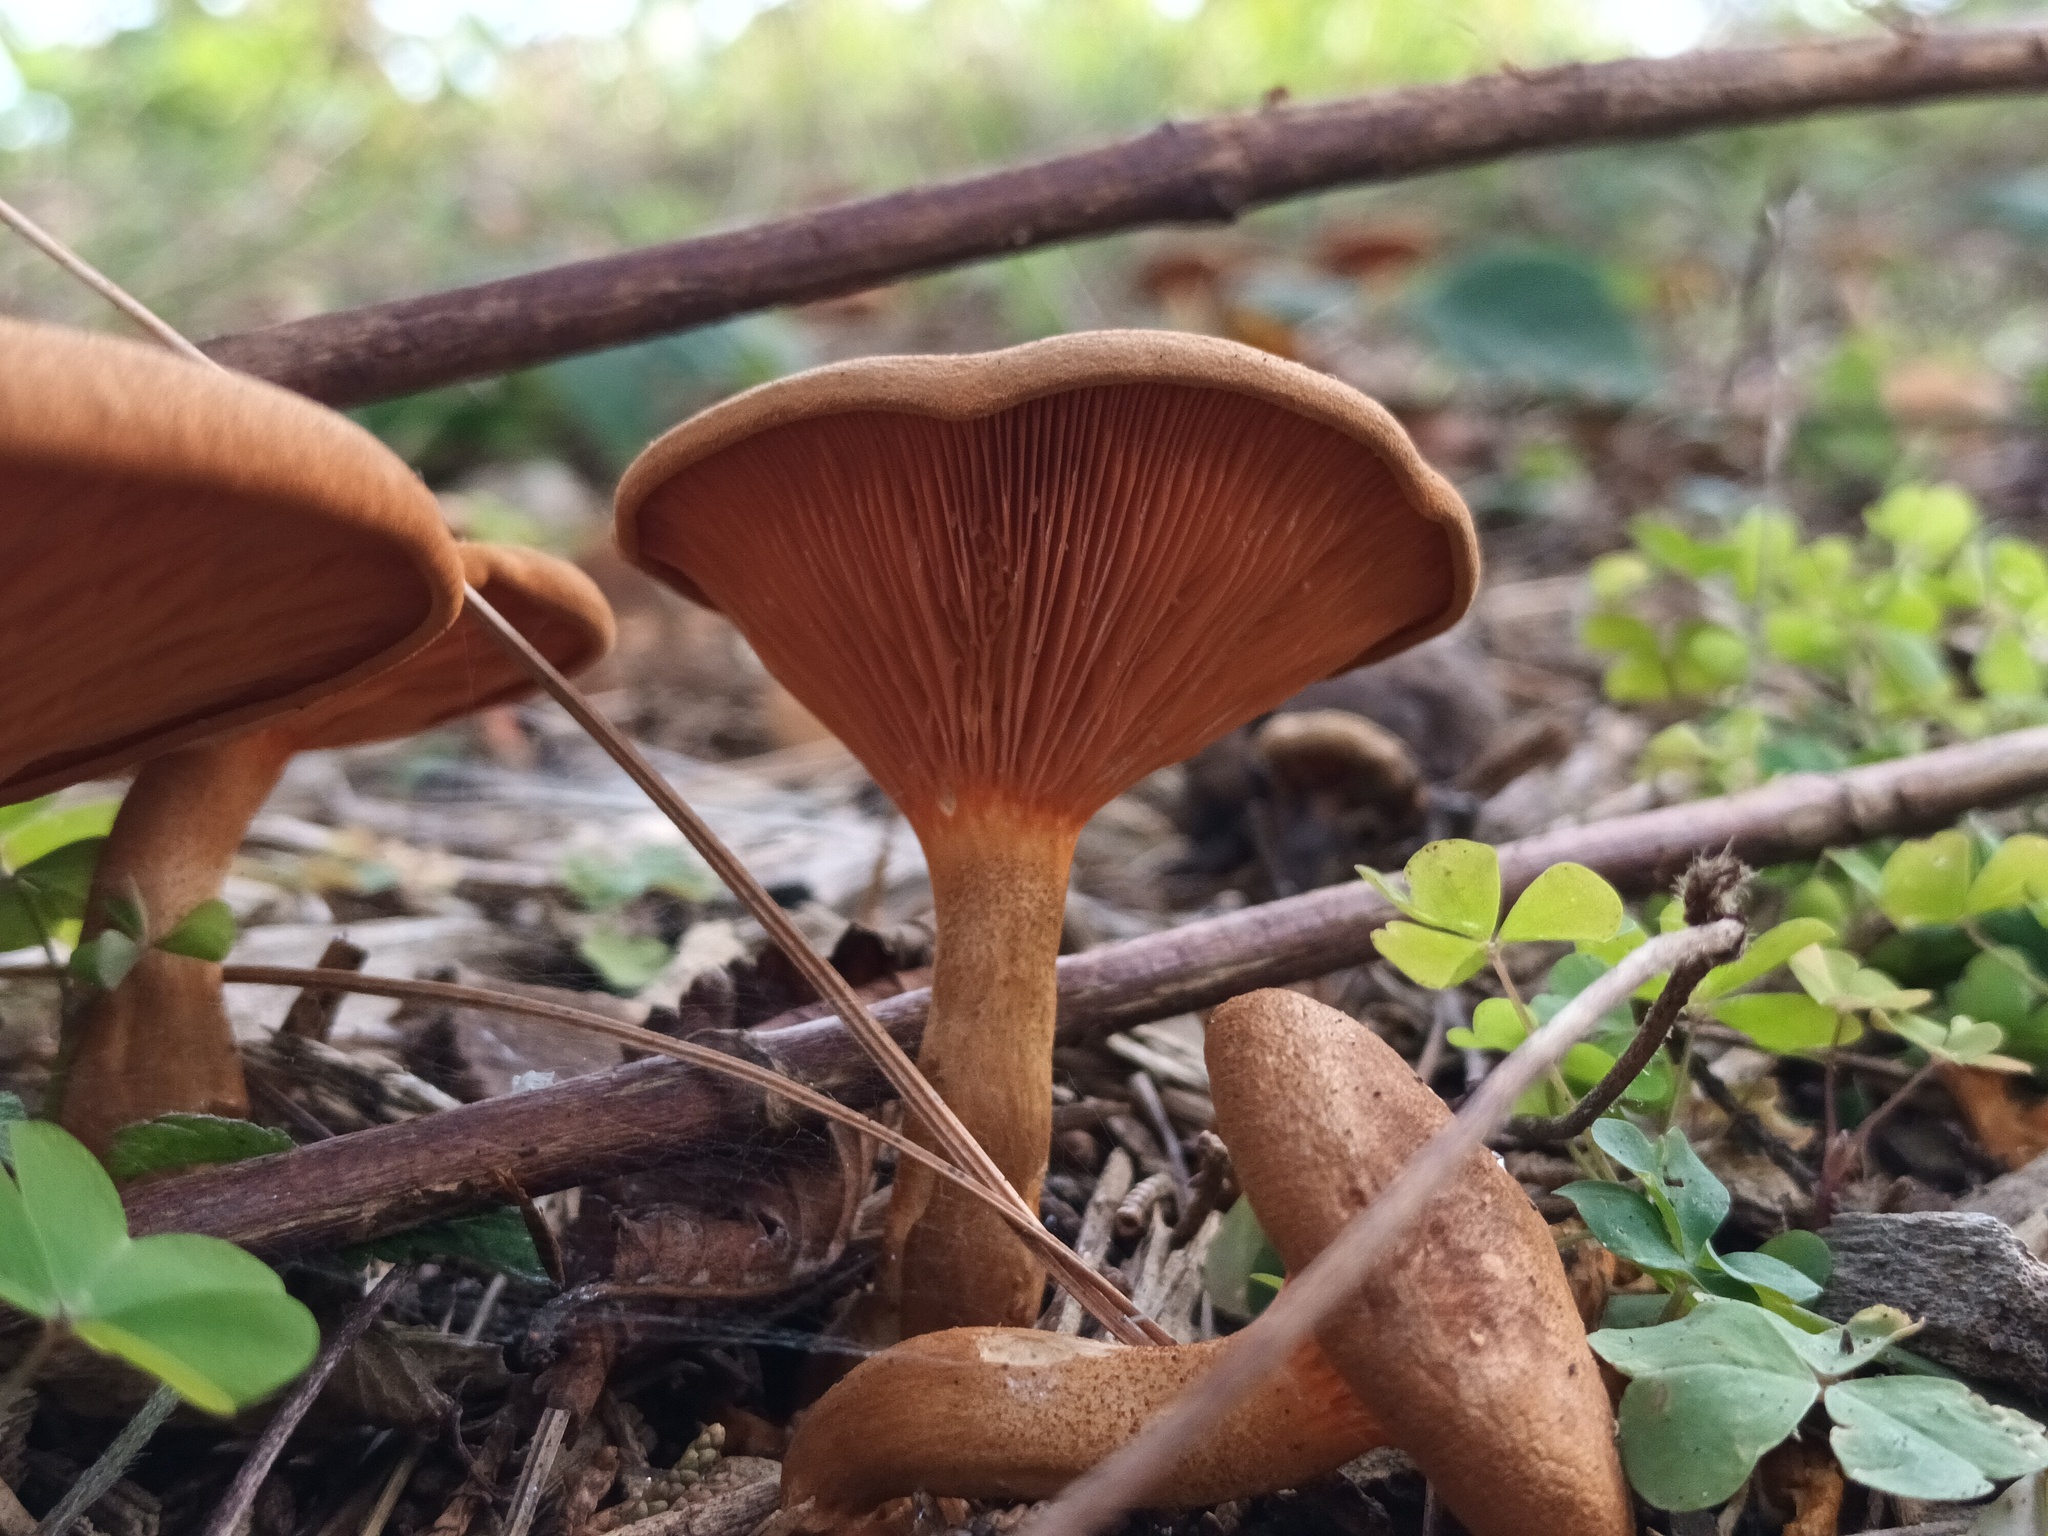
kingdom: Fungi
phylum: Basidiomycota
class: Agaricomycetes
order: Boletales
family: Hygrophoropsidaceae
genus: Hygrophoropsis
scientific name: Hygrophoropsis aurantiaca
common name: False chanterelle
